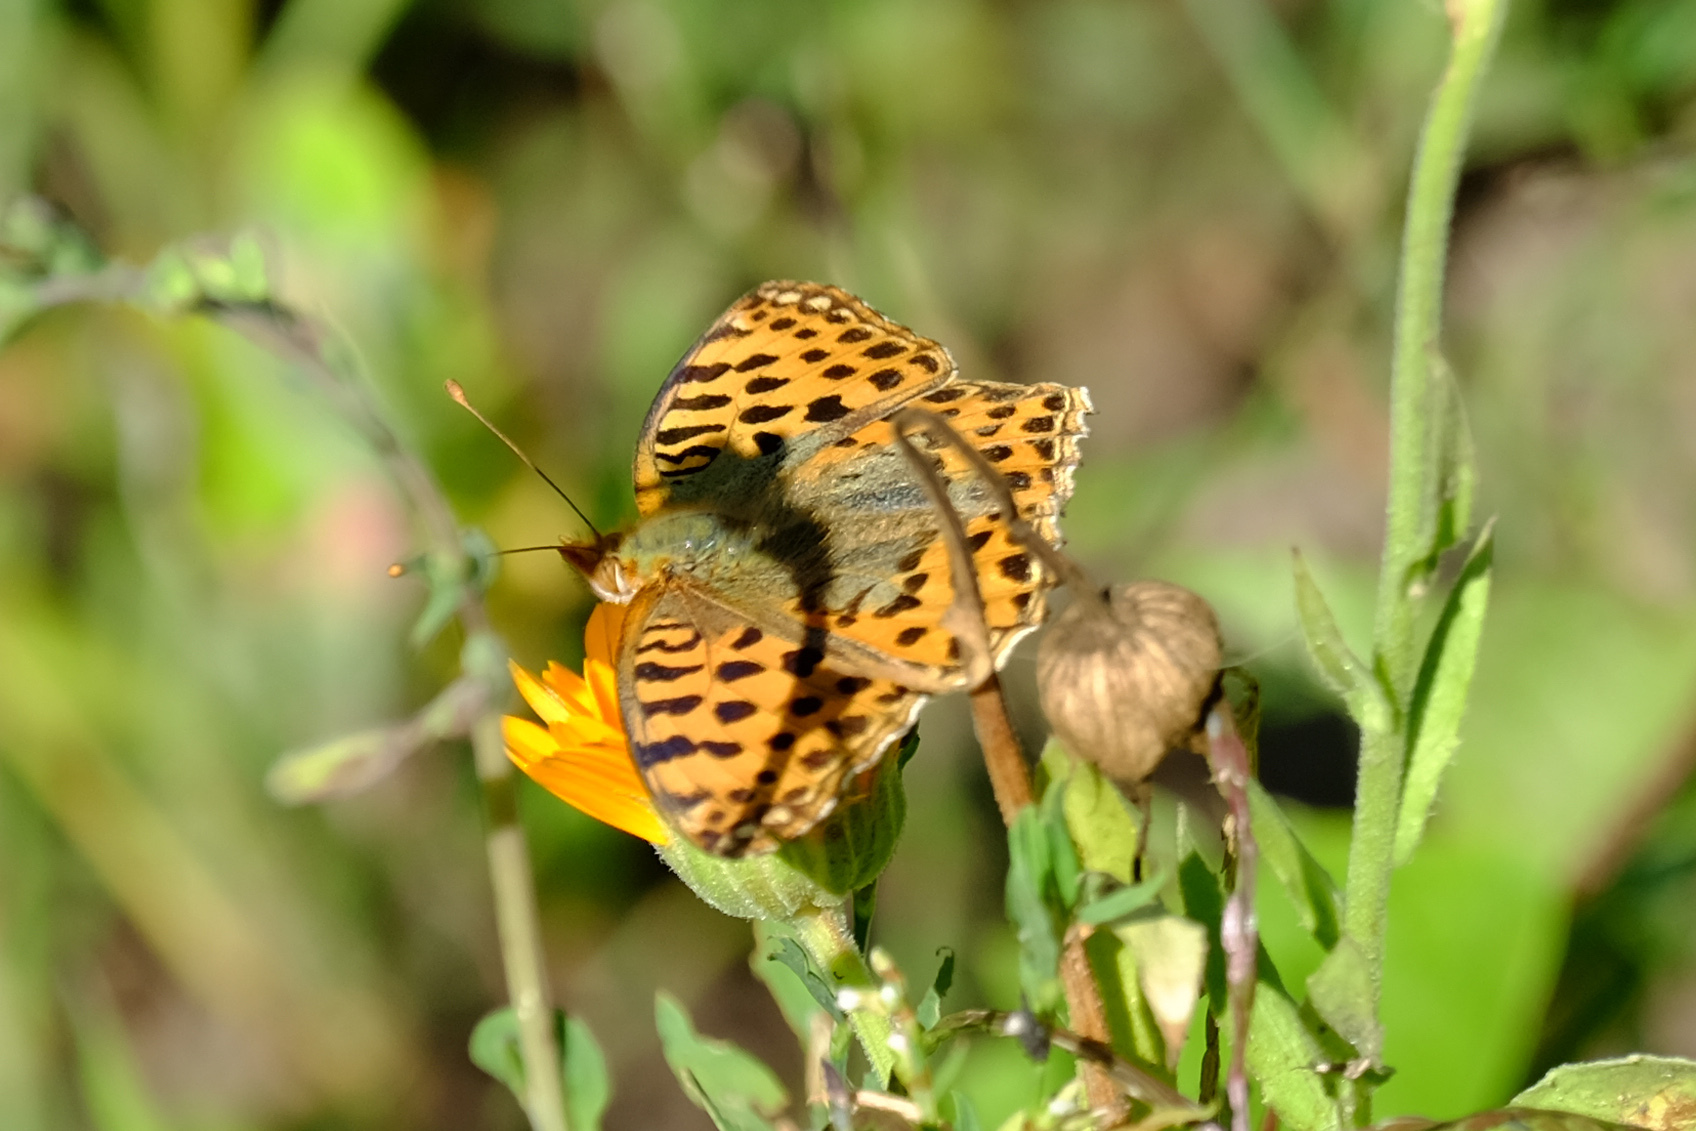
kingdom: Animalia
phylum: Arthropoda
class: Insecta
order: Lepidoptera
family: Nymphalidae
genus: Issoria
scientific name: Issoria lathonia
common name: Queen of spain fritillary
